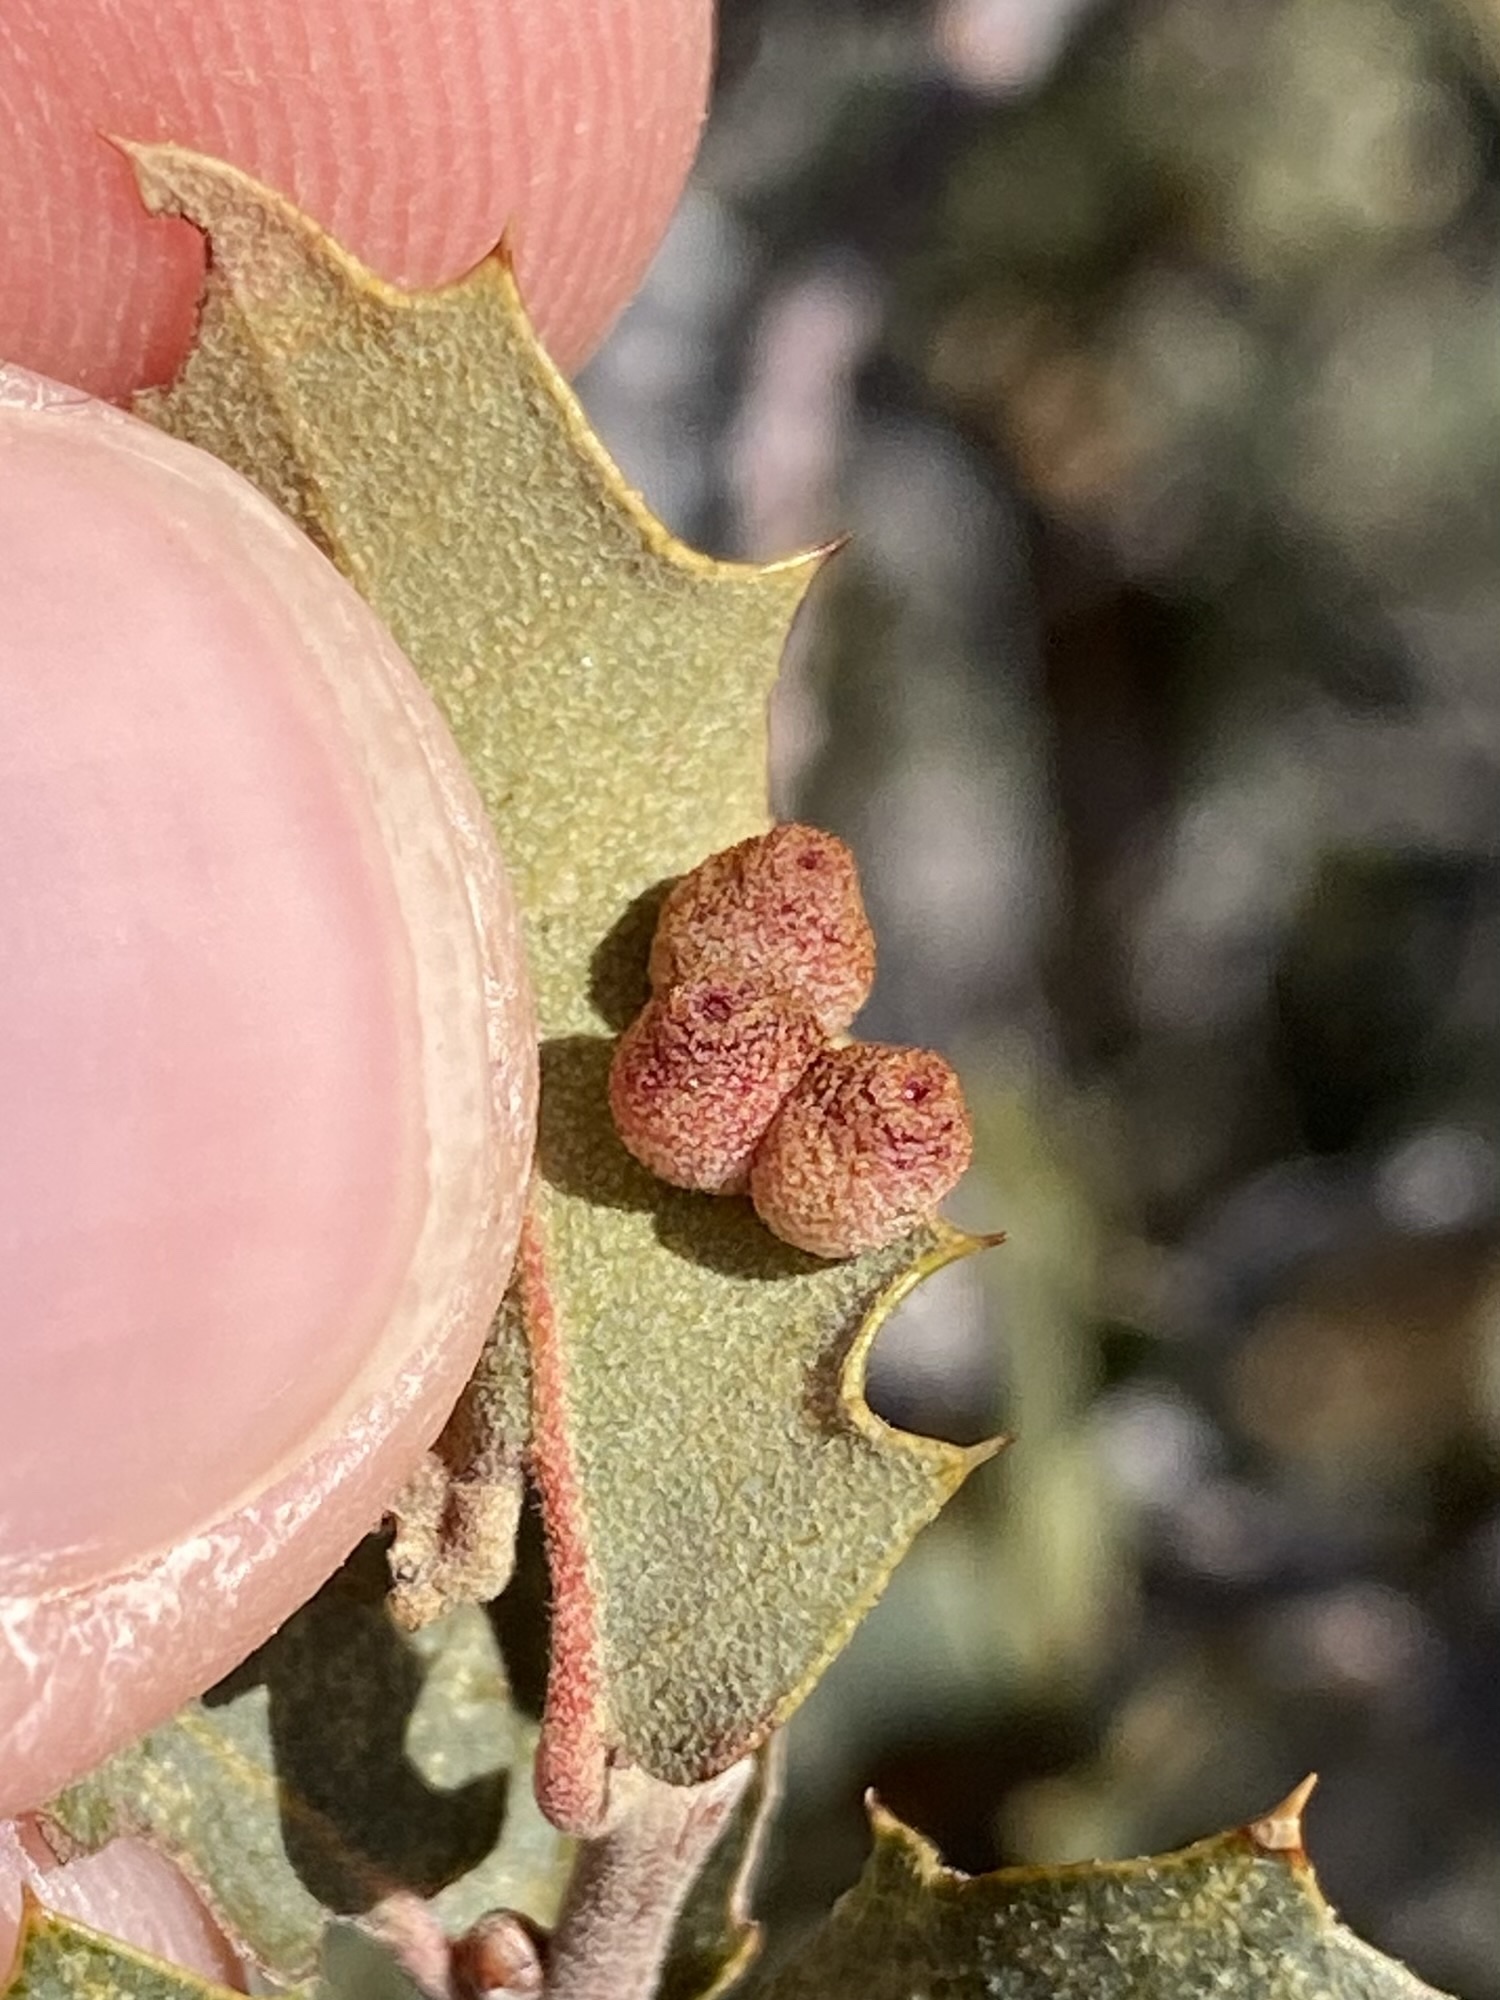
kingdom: Animalia
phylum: Arthropoda
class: Insecta
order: Hymenoptera
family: Cynipidae
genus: Andricus
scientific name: Andricus
